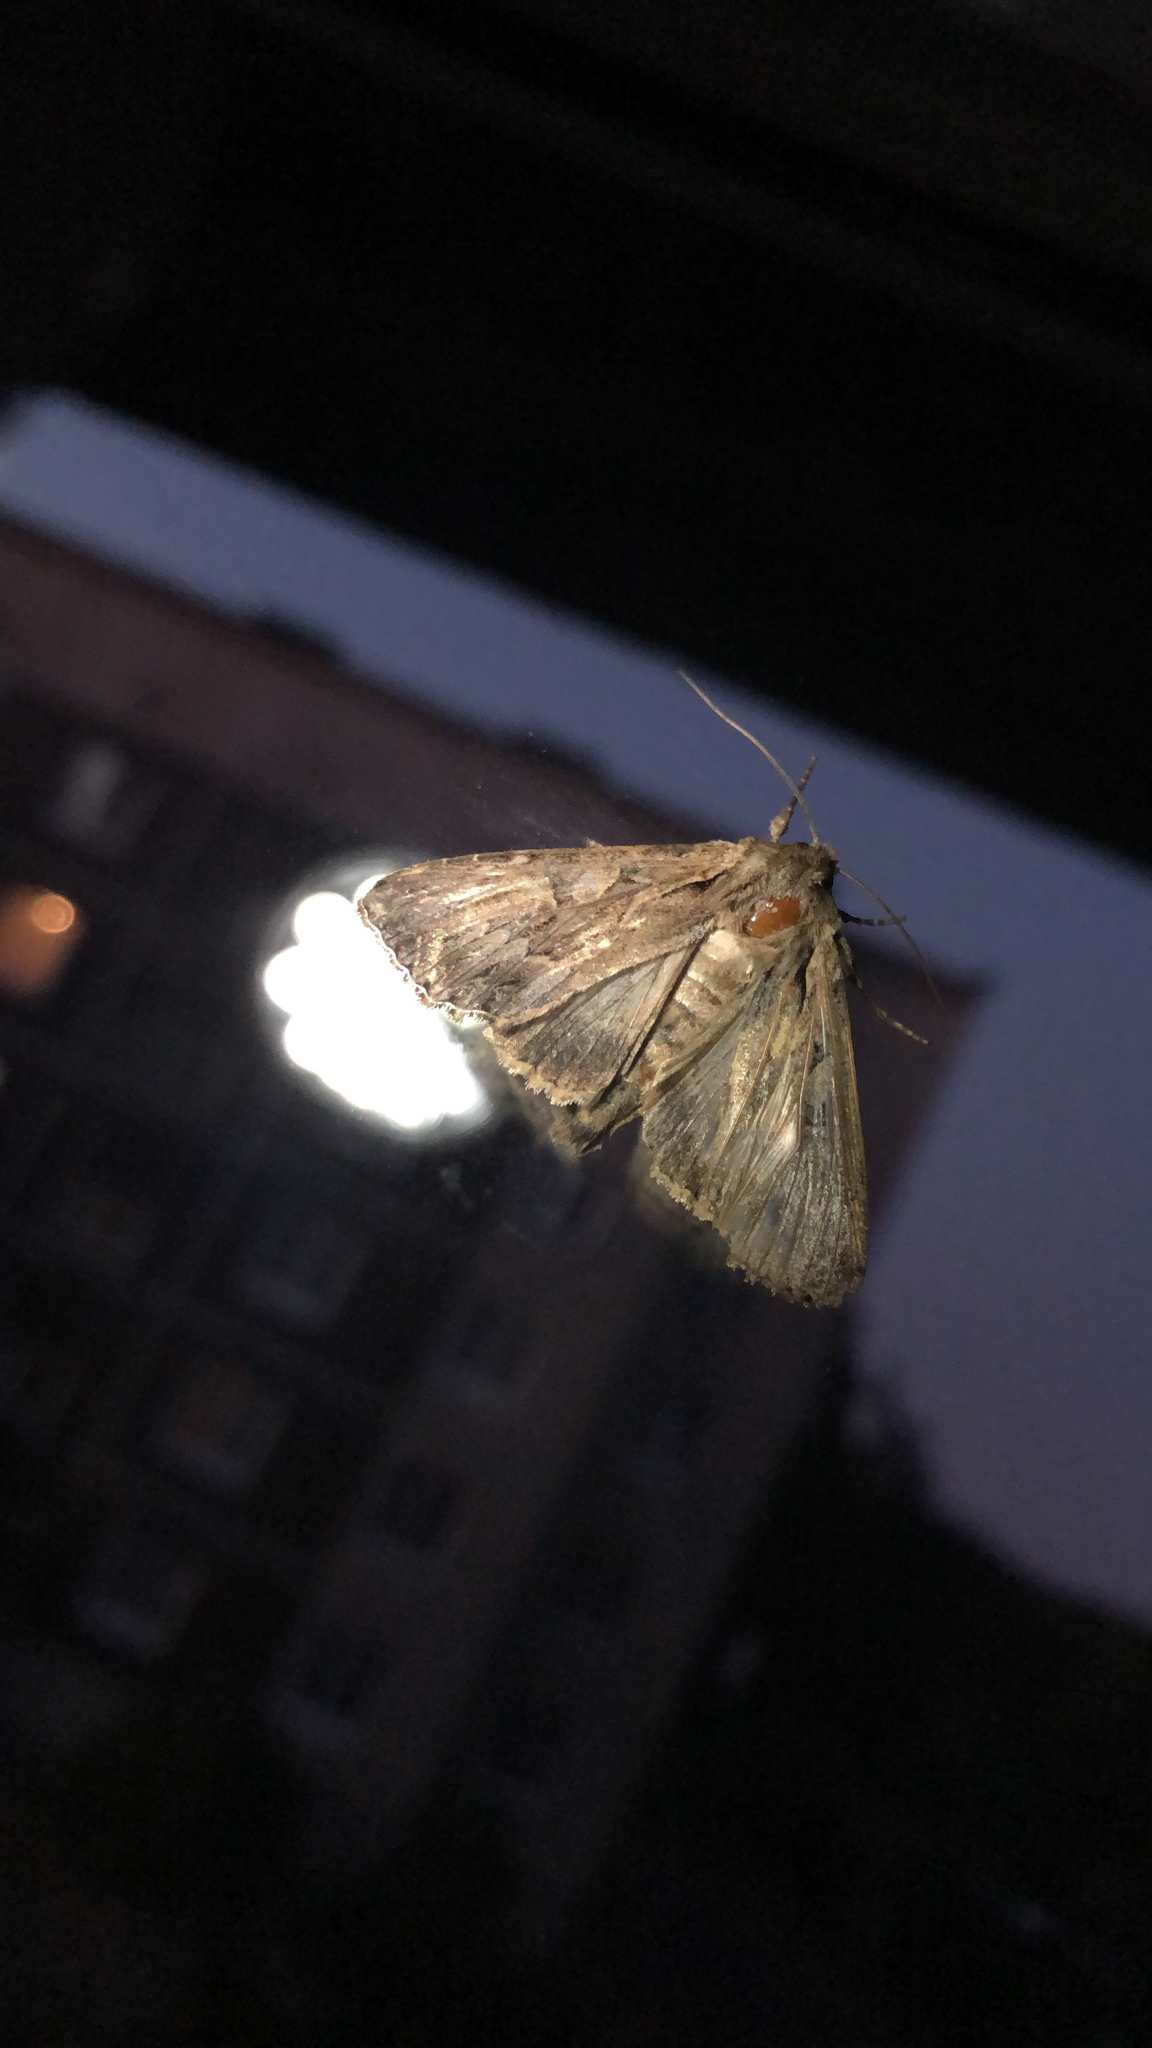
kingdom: Animalia
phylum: Arthropoda
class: Insecta
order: Lepidoptera
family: Noctuidae
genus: Apamea
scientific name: Apamea monoglypha
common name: Dark arches
